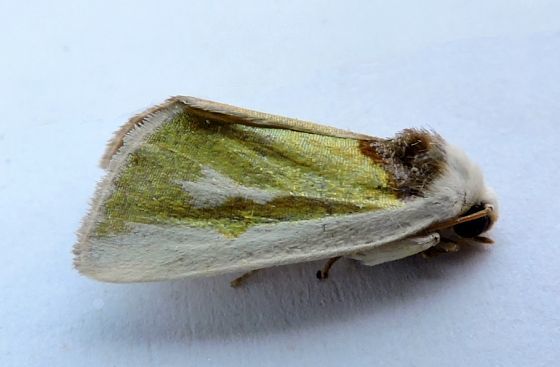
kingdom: Animalia
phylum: Arthropoda
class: Insecta
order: Lepidoptera
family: Noctuidae
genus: Neumoegenia
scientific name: Neumoegenia poetica
